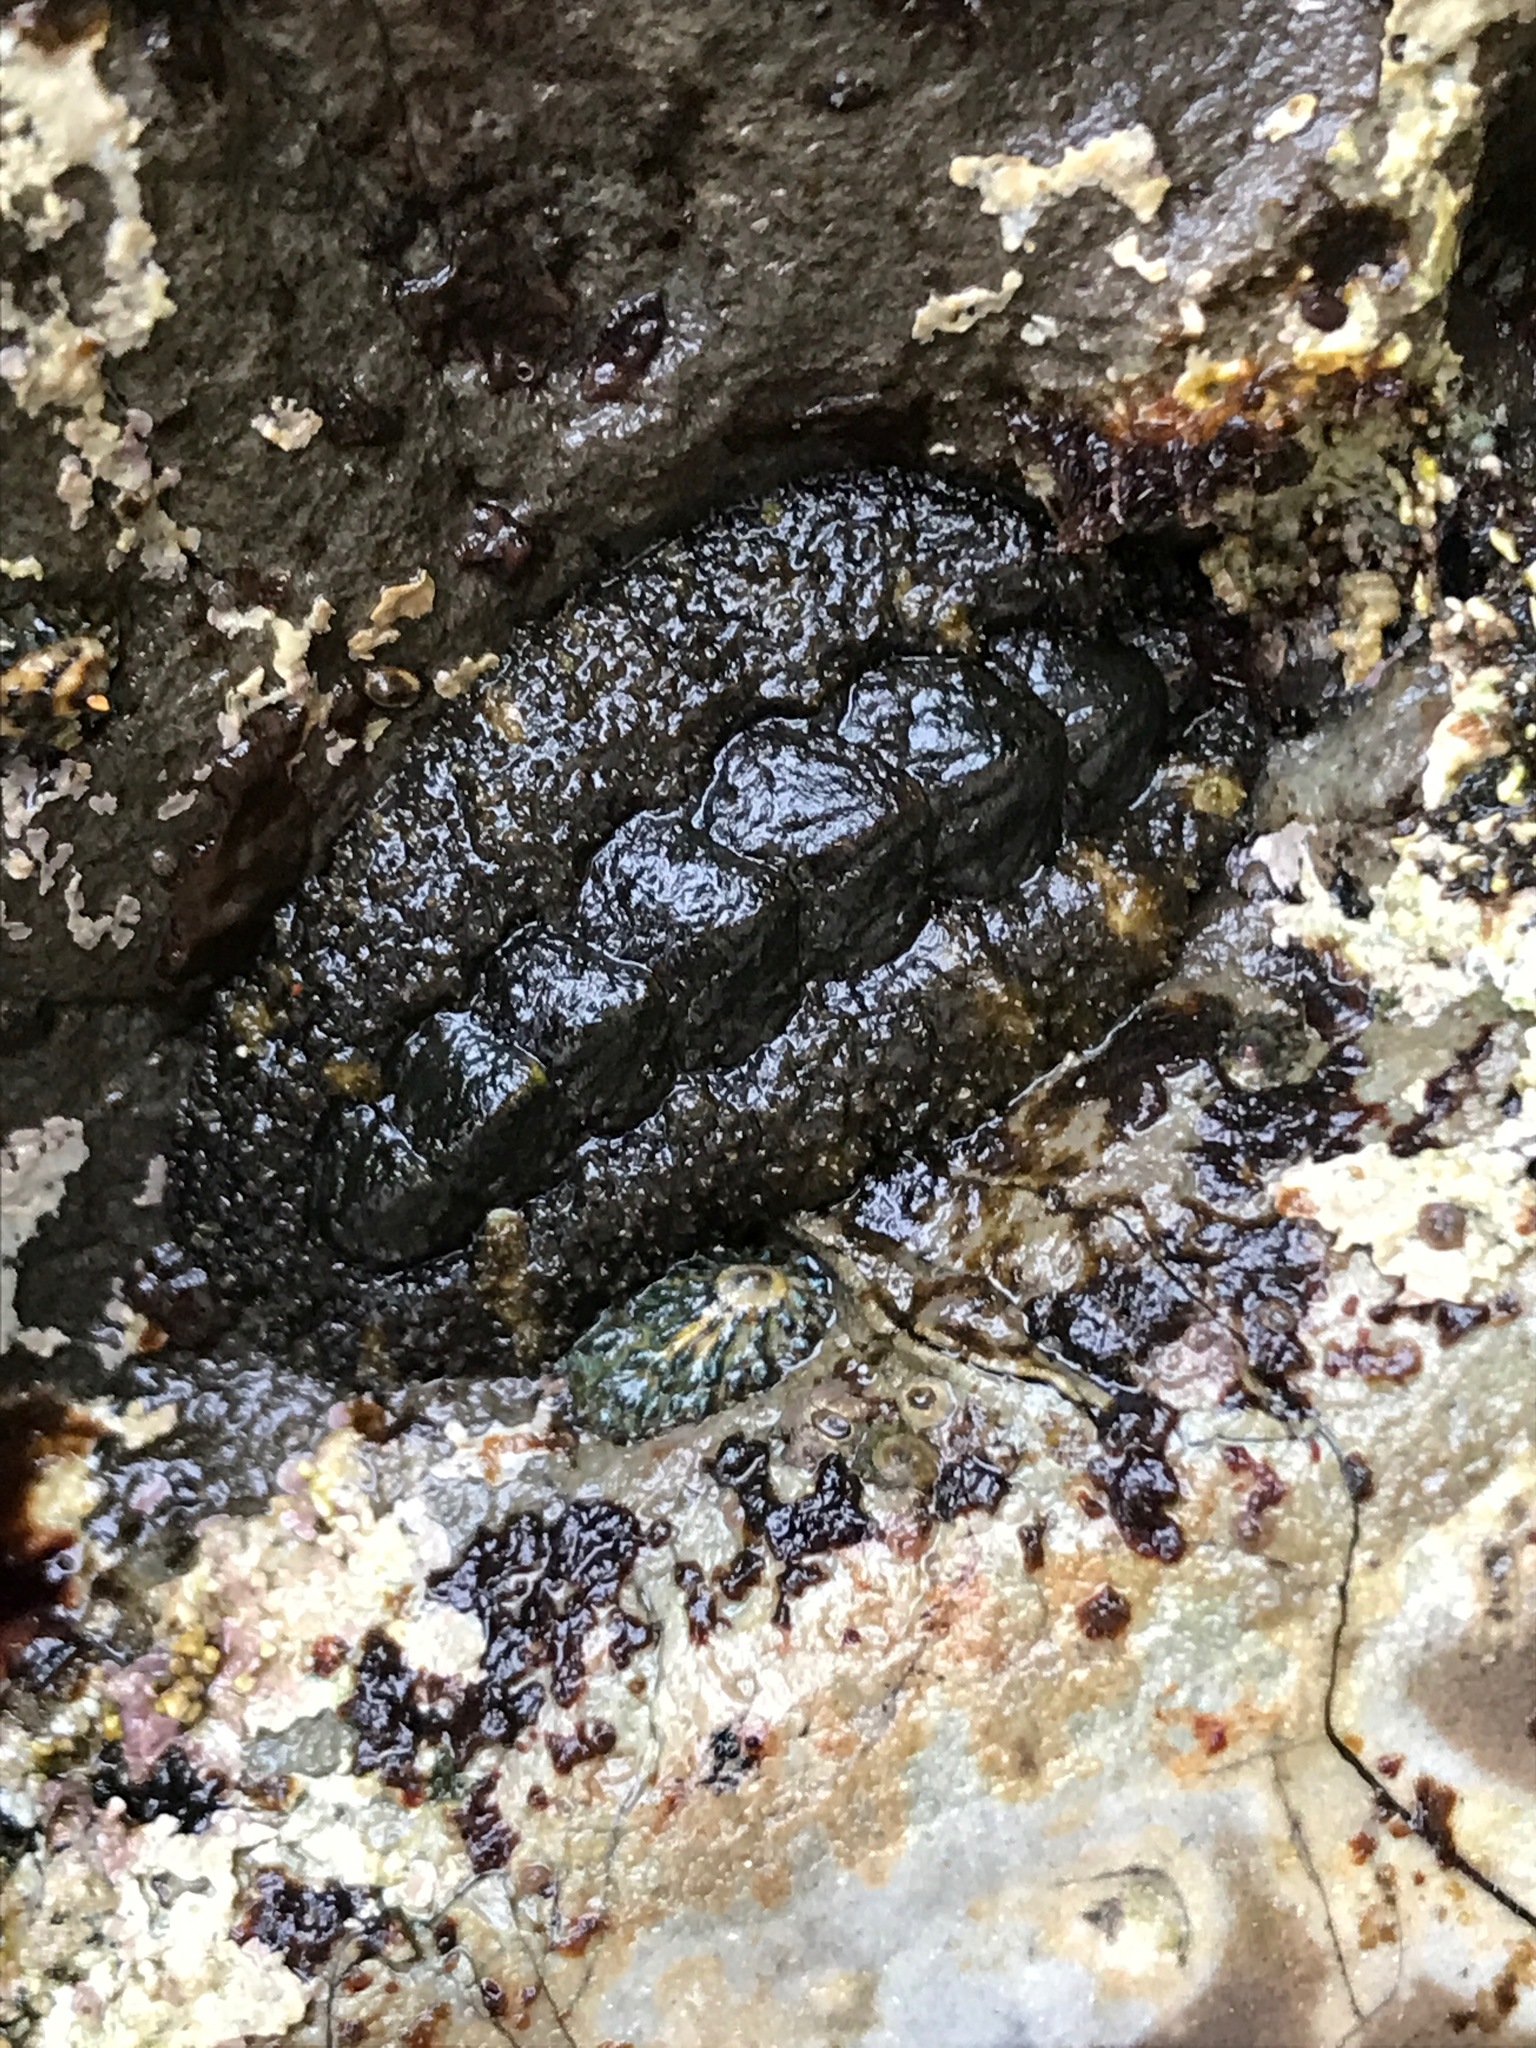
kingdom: Animalia
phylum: Mollusca
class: Polyplacophora
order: Chitonida
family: Tonicellidae
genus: Nuttallina
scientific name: Nuttallina californica
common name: California nuttall chiton
